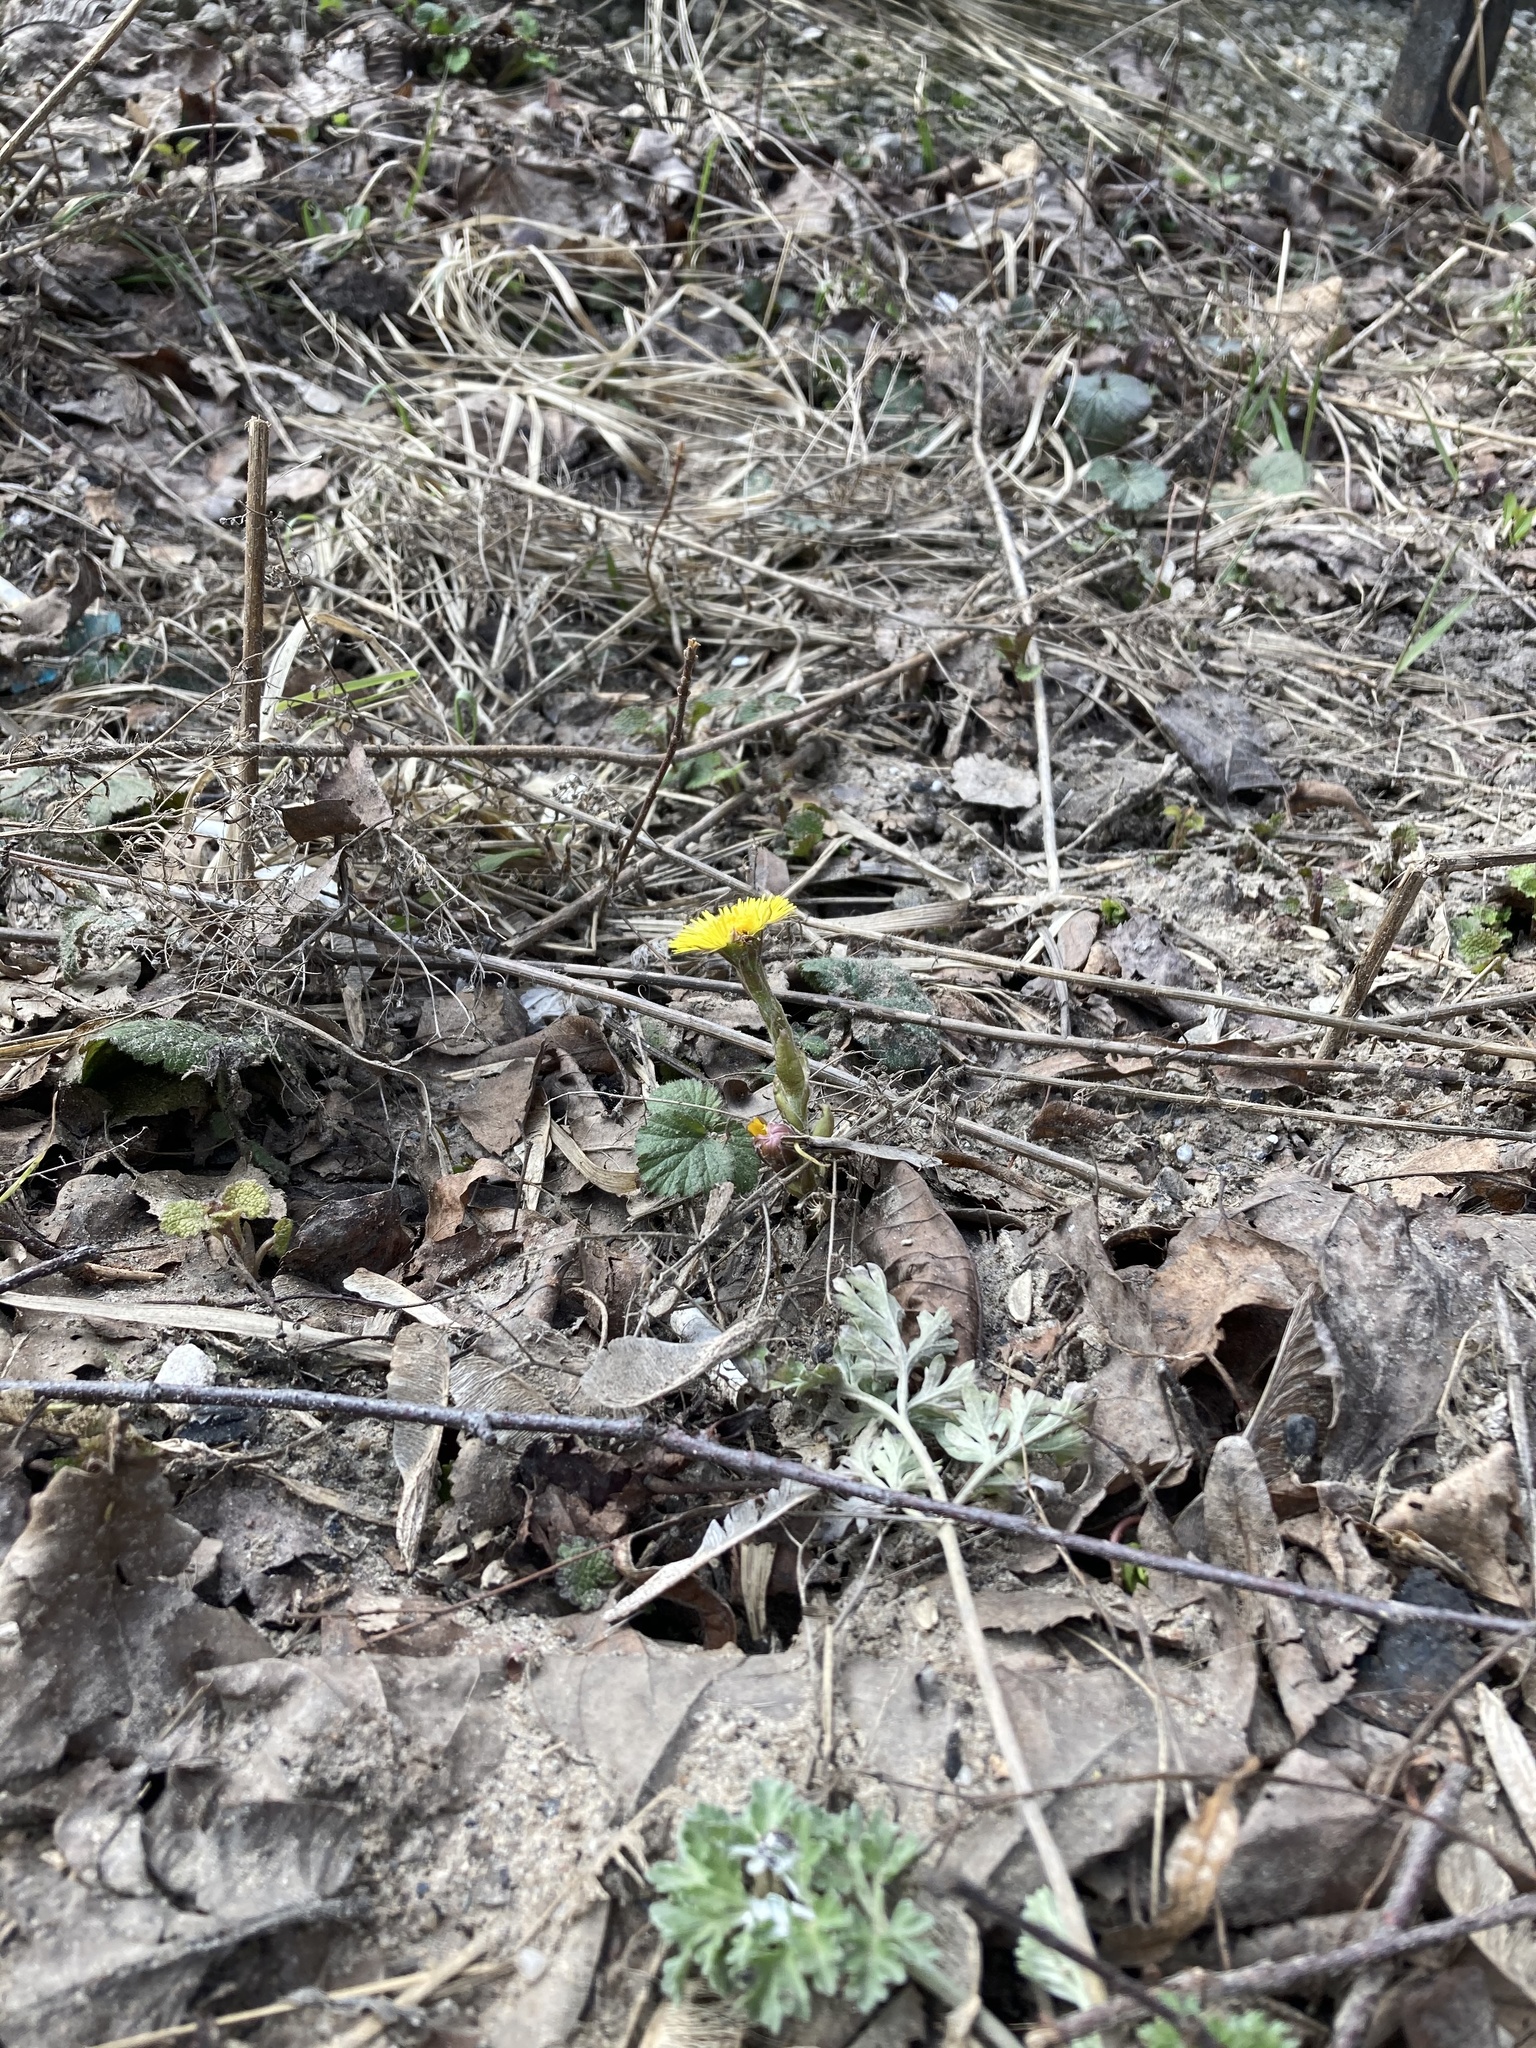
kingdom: Plantae
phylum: Tracheophyta
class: Magnoliopsida
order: Asterales
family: Asteraceae
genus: Tussilago
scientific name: Tussilago farfara
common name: Coltsfoot
